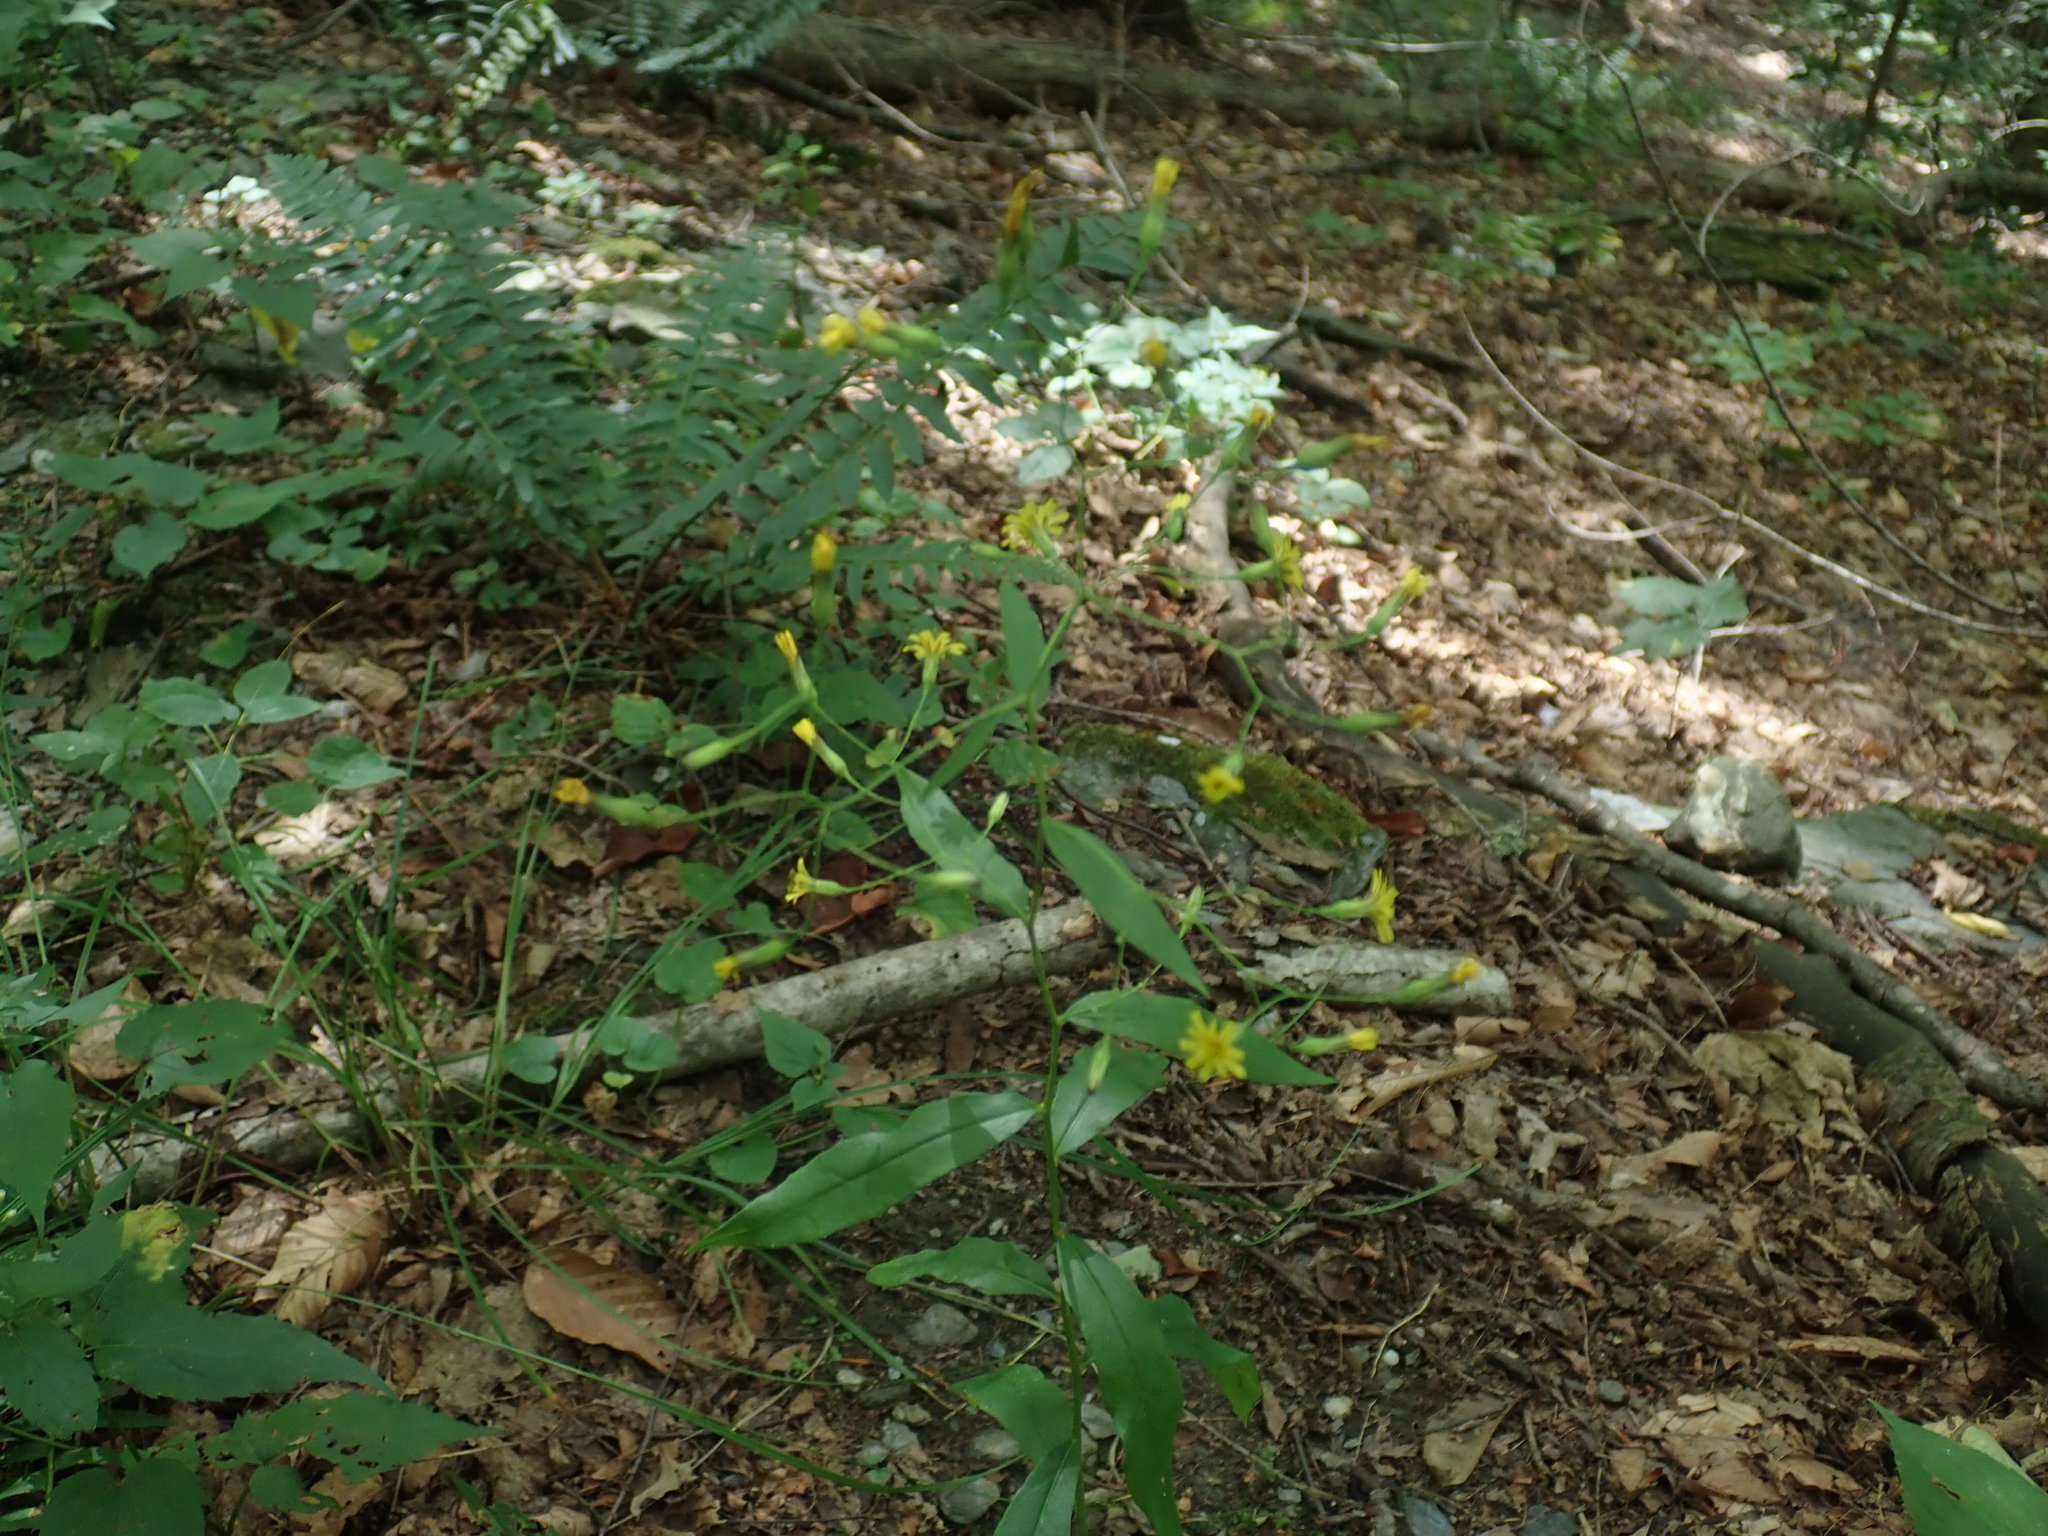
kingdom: Plantae
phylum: Tracheophyta
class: Magnoliopsida
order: Asterales
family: Asteraceae
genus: Hieracium
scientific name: Hieracium paniculatum
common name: Allegheny hawkweed
